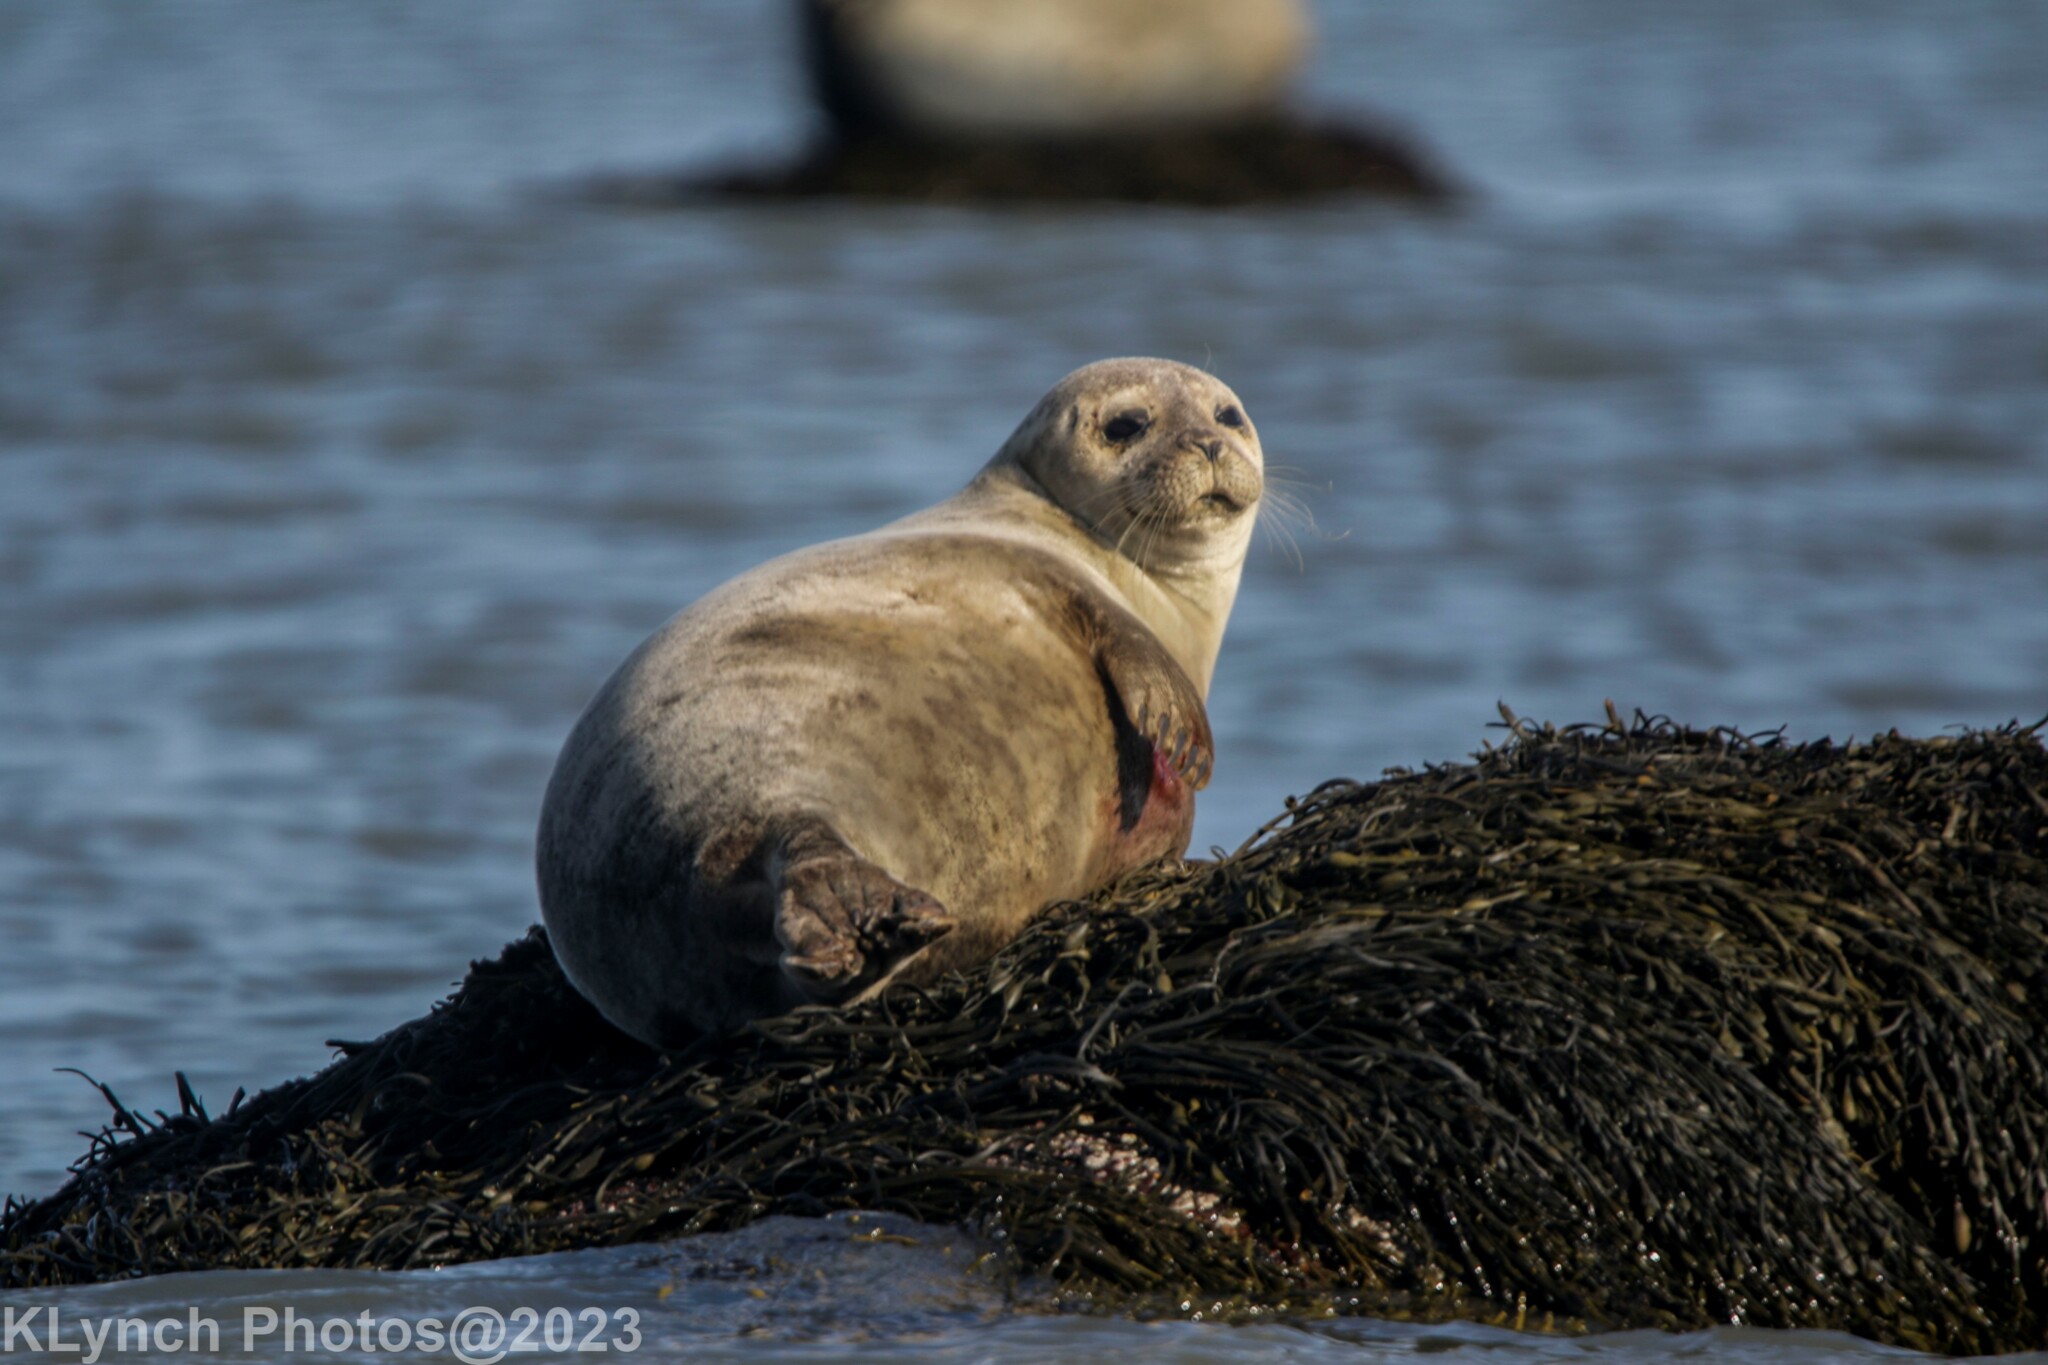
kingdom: Animalia
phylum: Chordata
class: Mammalia
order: Carnivora
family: Phocidae
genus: Phoca
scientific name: Phoca vitulina
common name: Harbor seal
